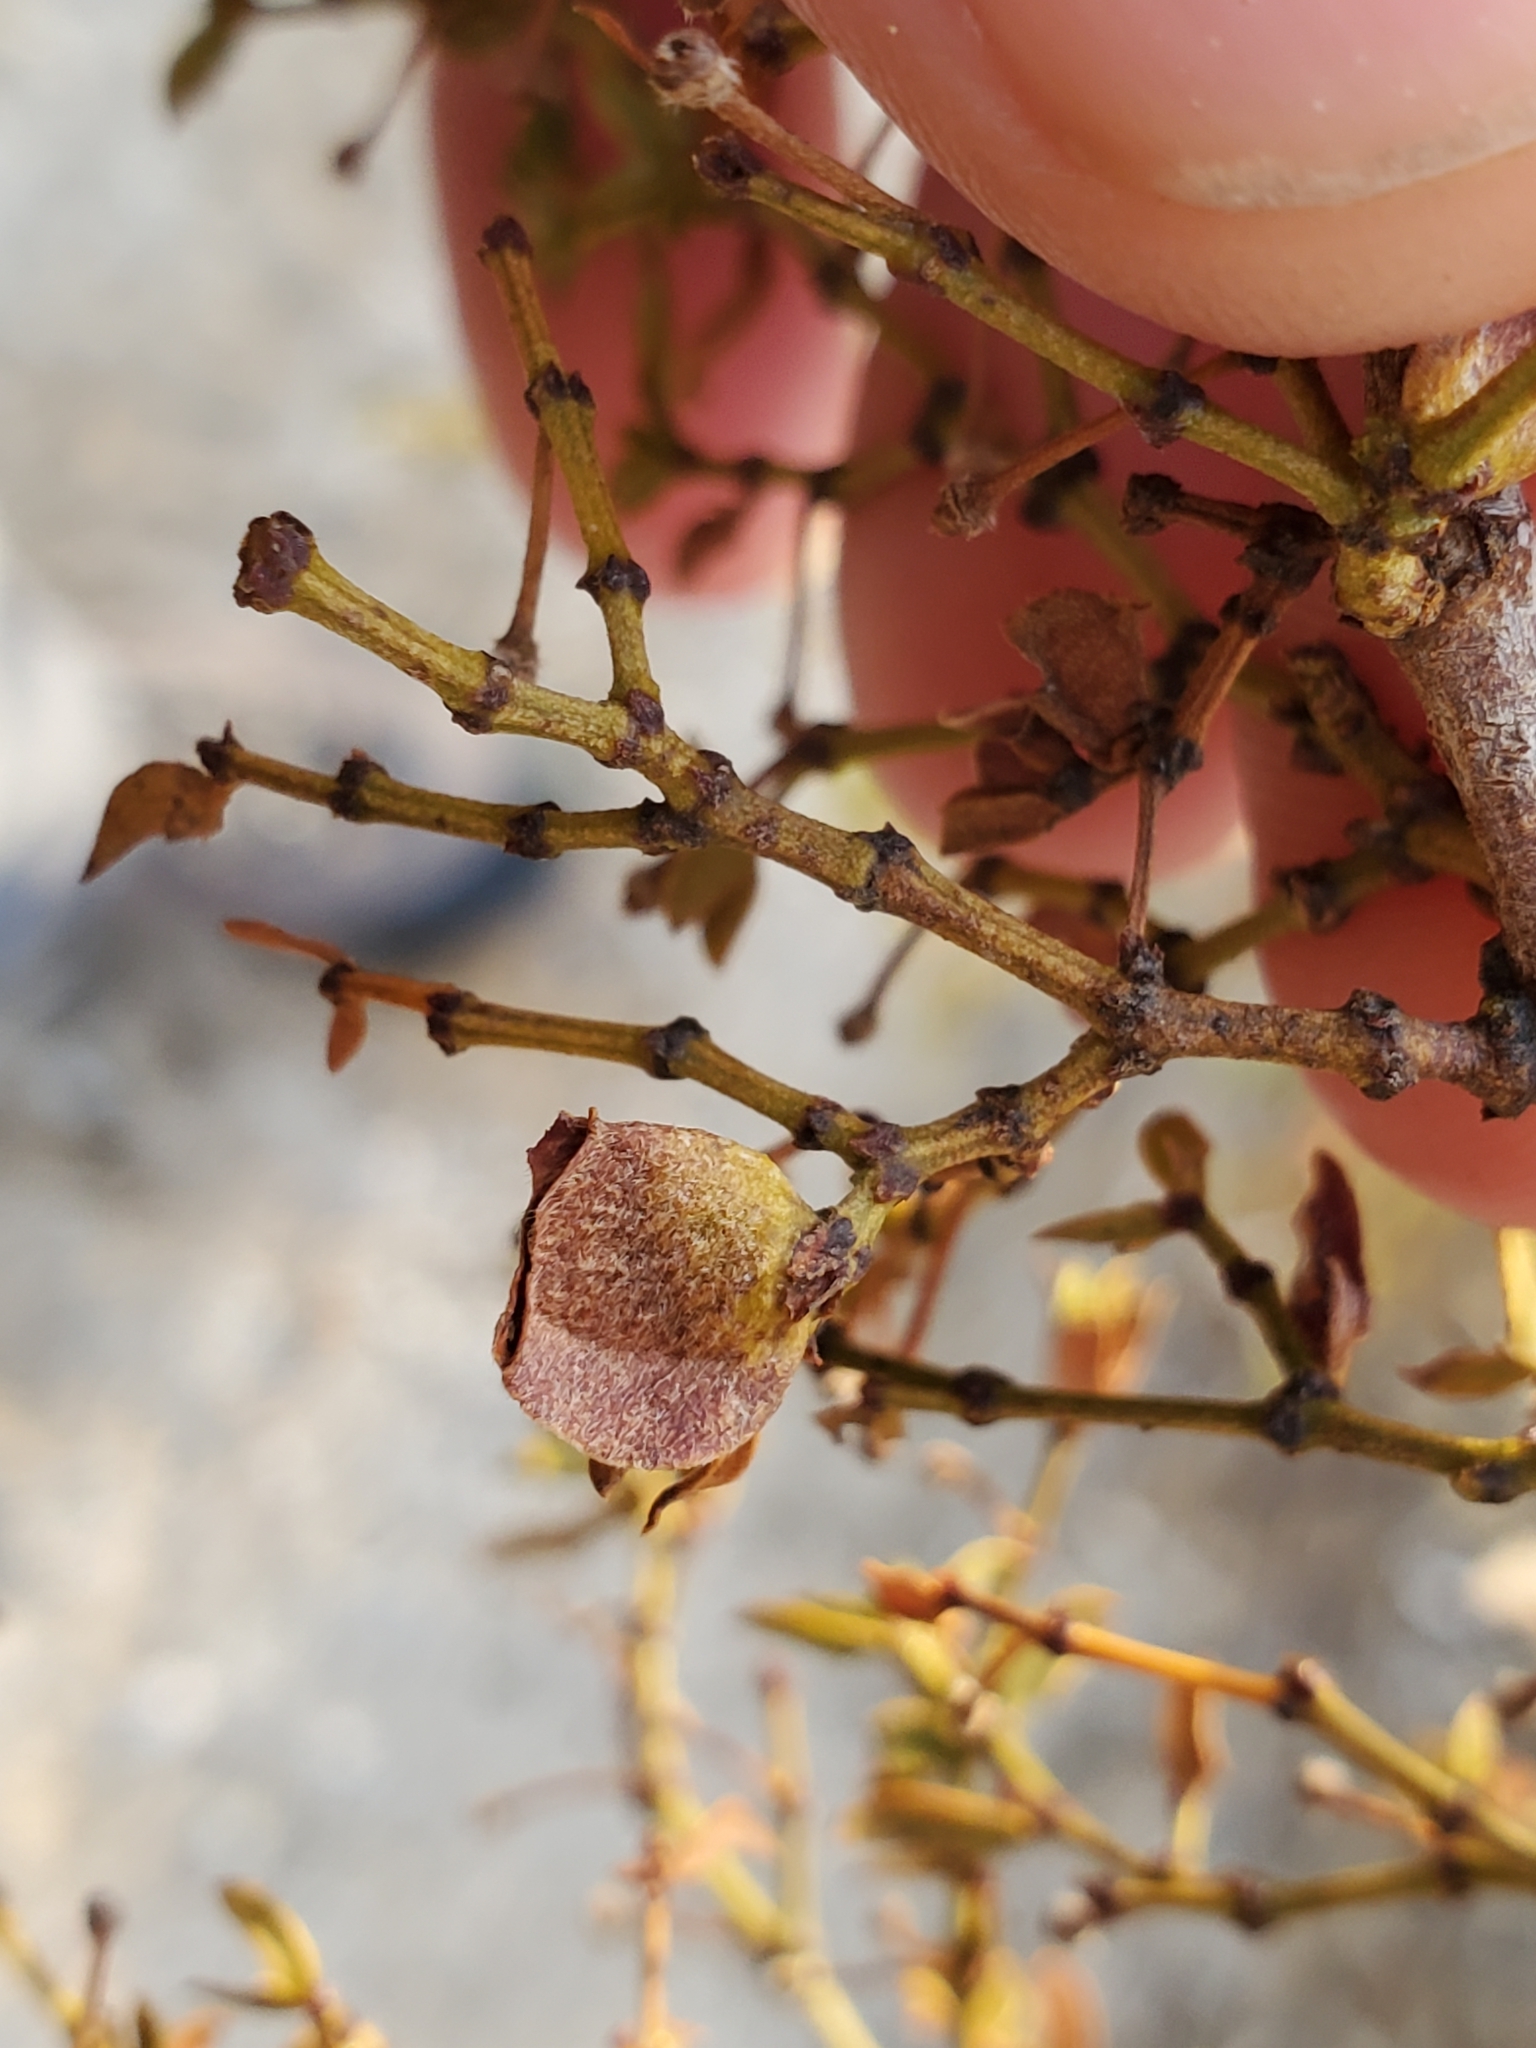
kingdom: Plantae
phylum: Tracheophyta
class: Magnoliopsida
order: Zygophyllales
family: Zygophyllaceae
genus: Larrea
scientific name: Larrea tridentata
